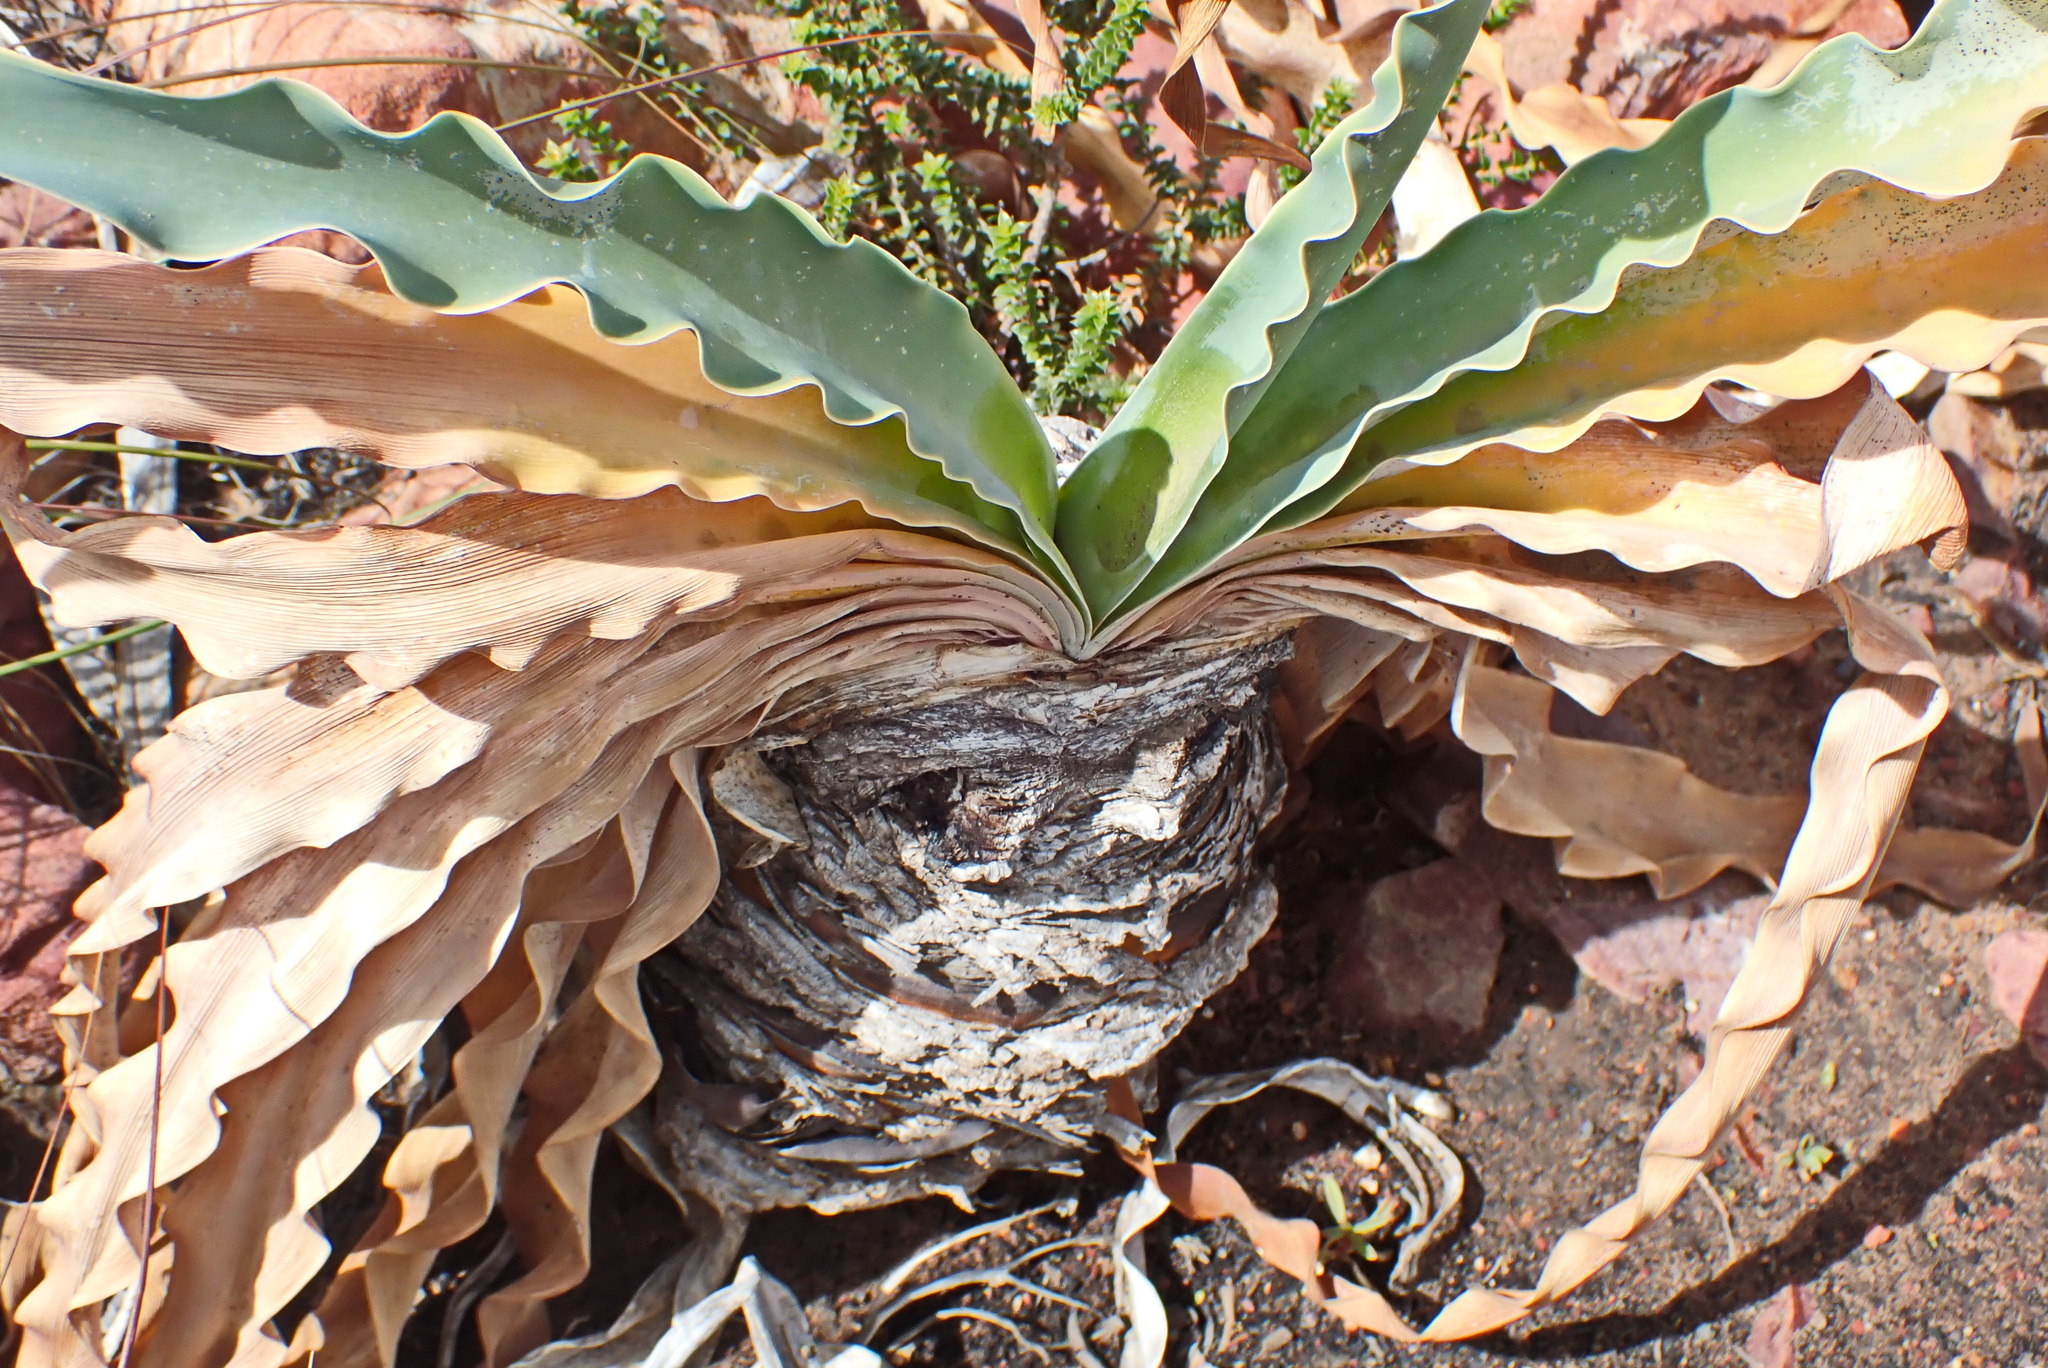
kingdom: Plantae
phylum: Tracheophyta
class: Liliopsida
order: Asparagales
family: Amaryllidaceae
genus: Boophone
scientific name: Boophone disticha
